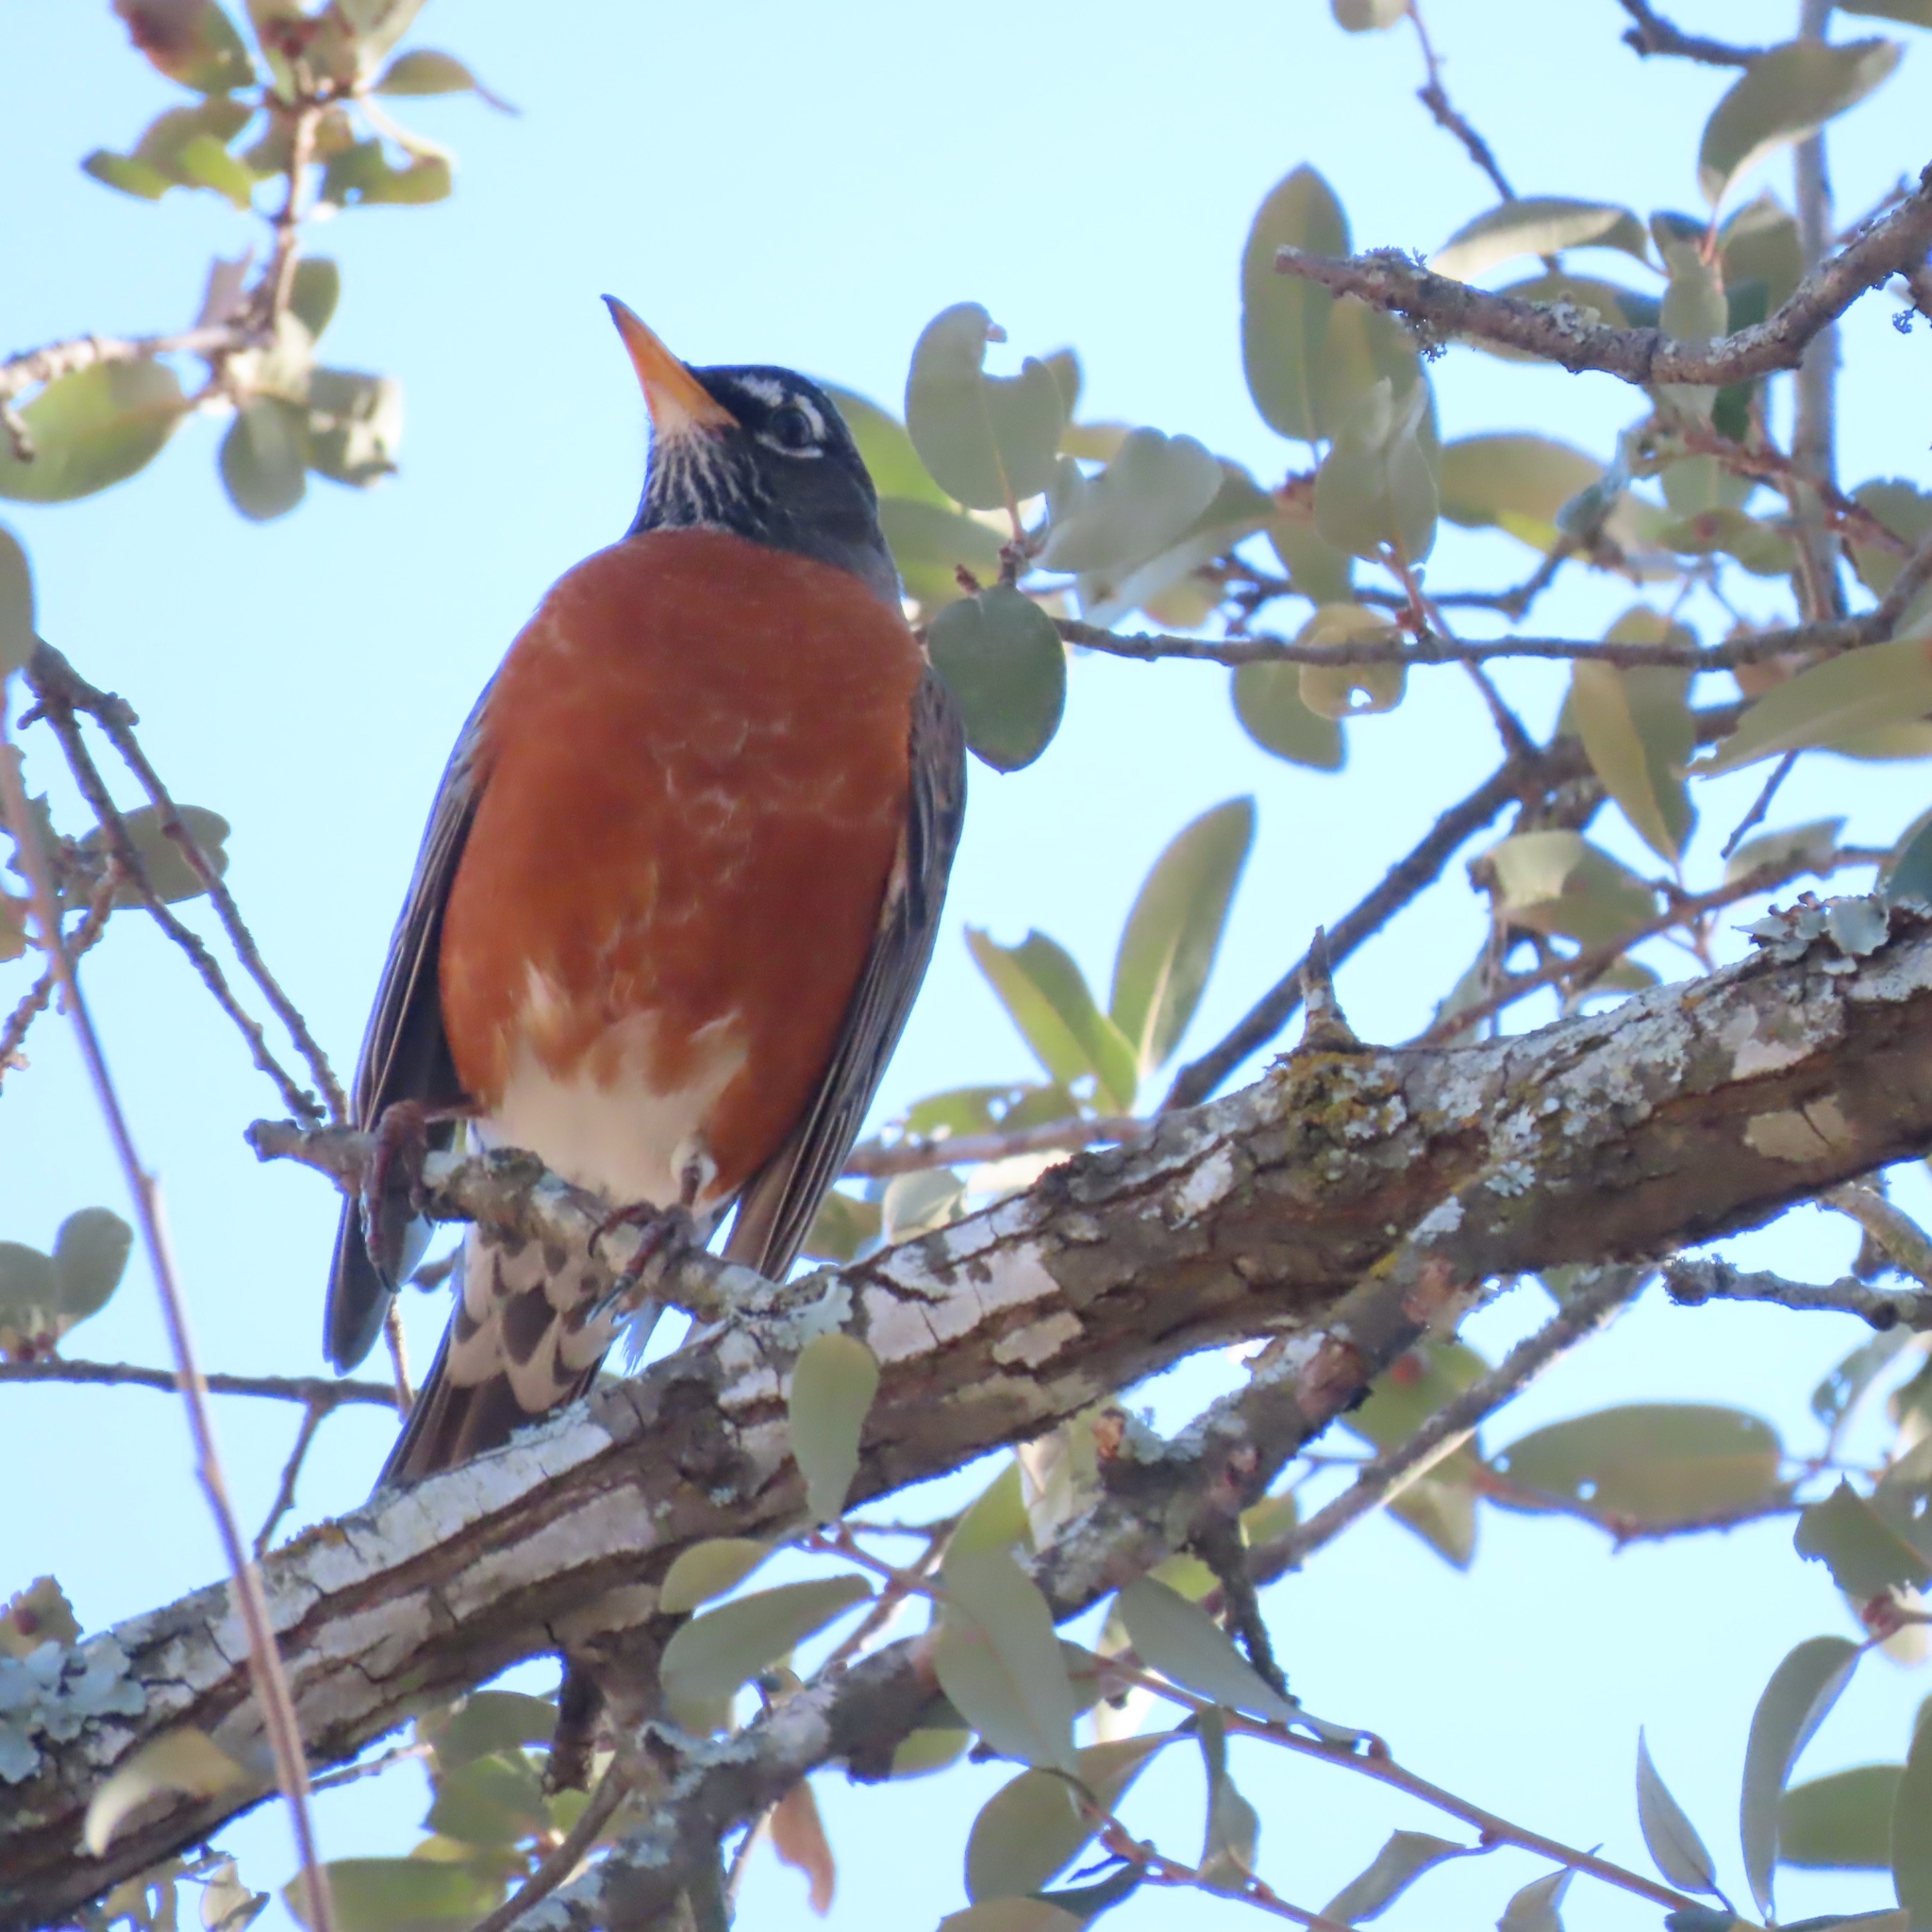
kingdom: Animalia
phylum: Chordata
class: Aves
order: Passeriformes
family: Turdidae
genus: Turdus
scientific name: Turdus migratorius
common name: American robin
